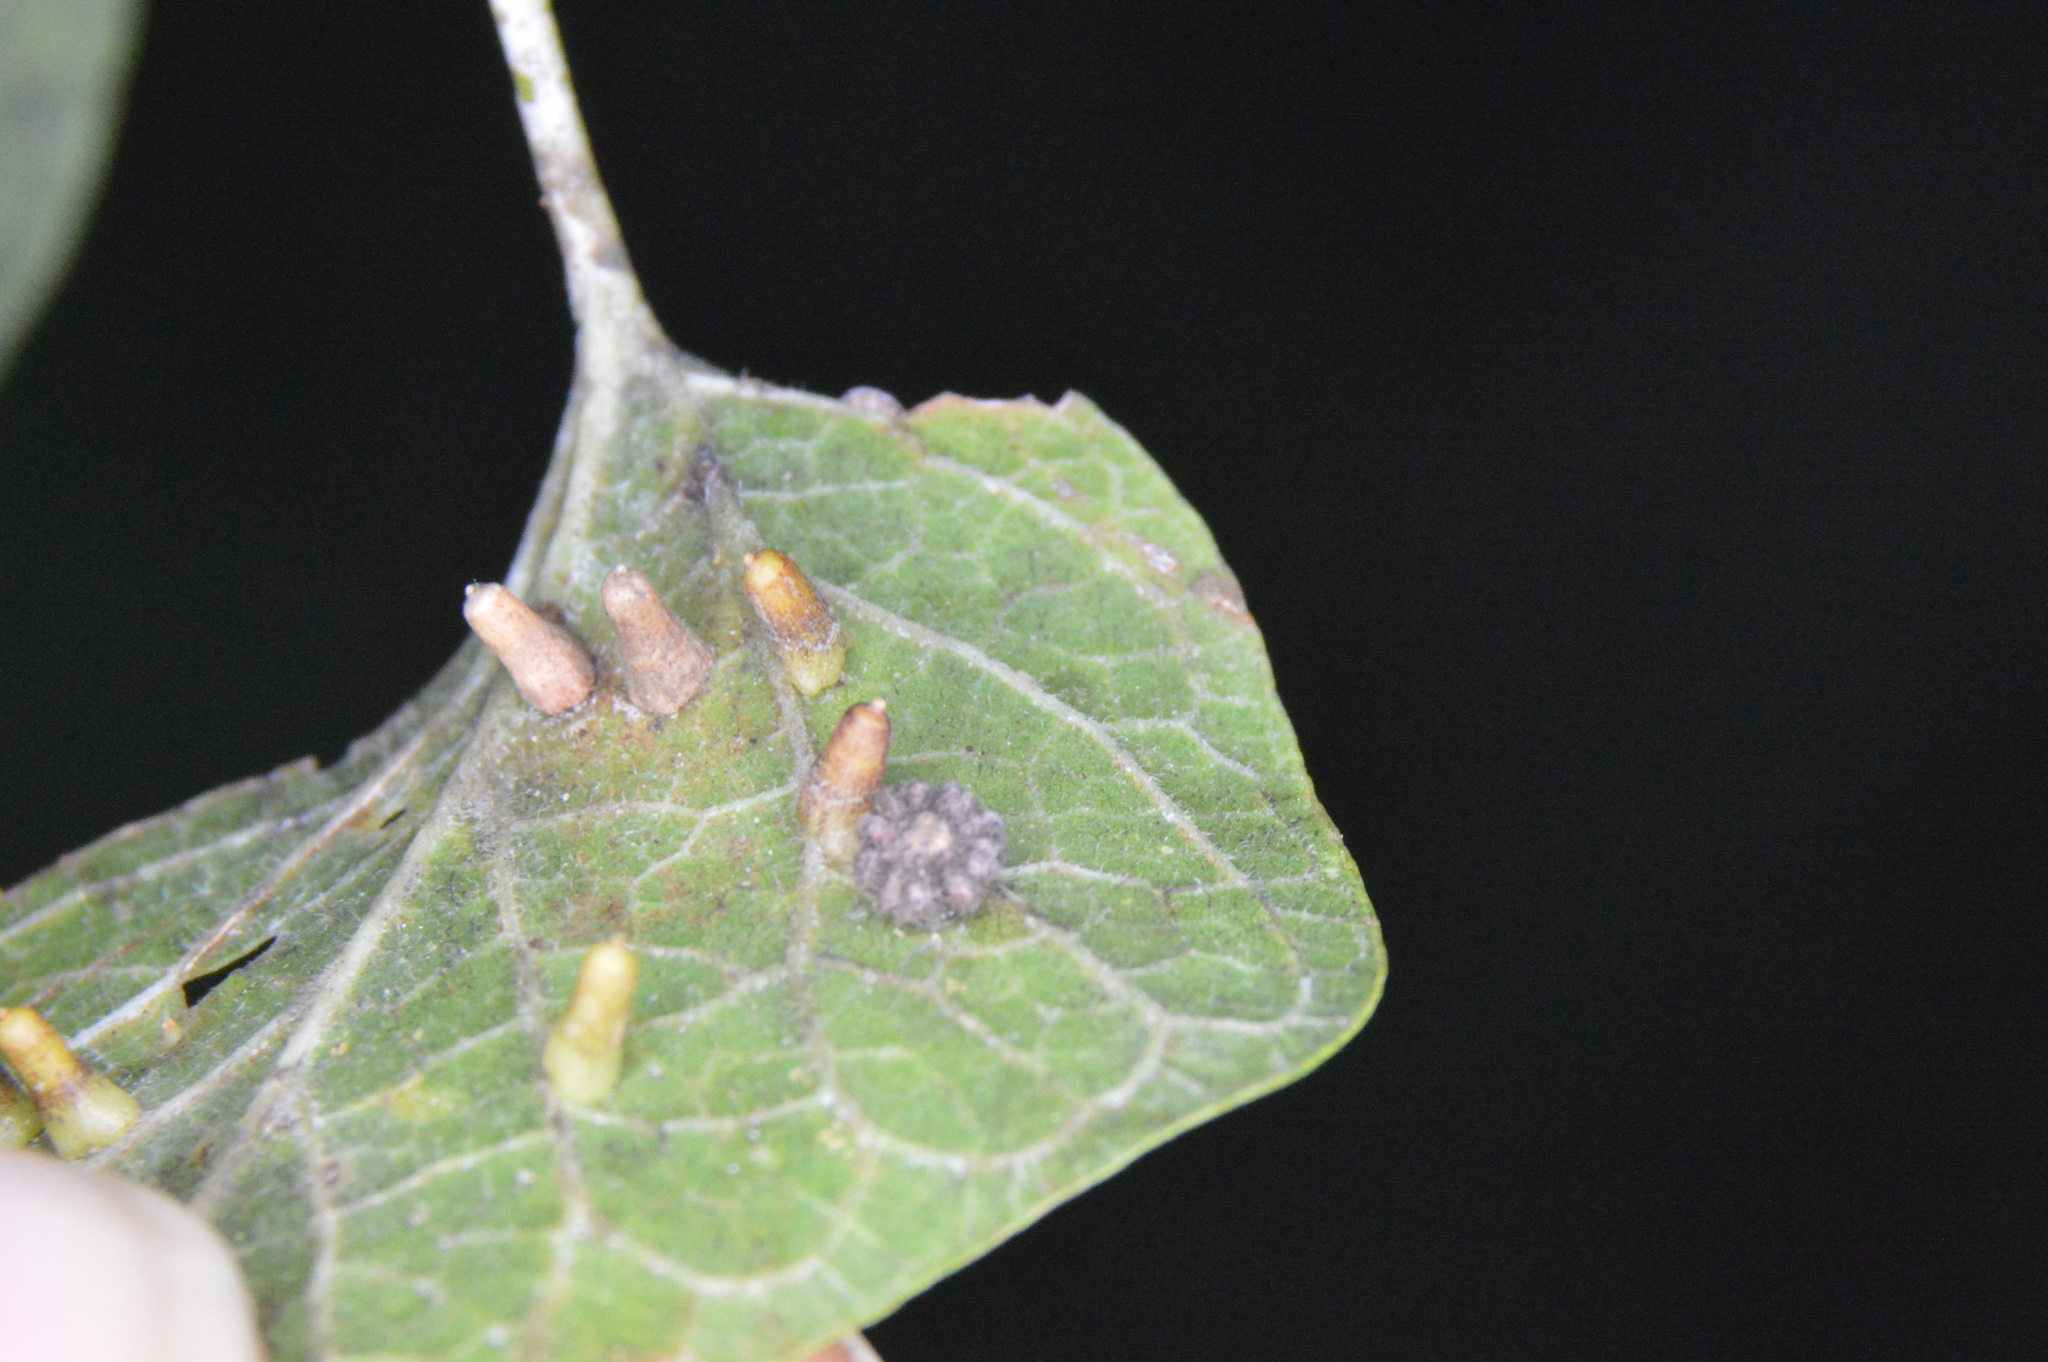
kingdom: Animalia
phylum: Arthropoda
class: Insecta
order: Diptera
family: Cecidomyiidae
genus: Celticecis
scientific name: Celticecis capsularis
